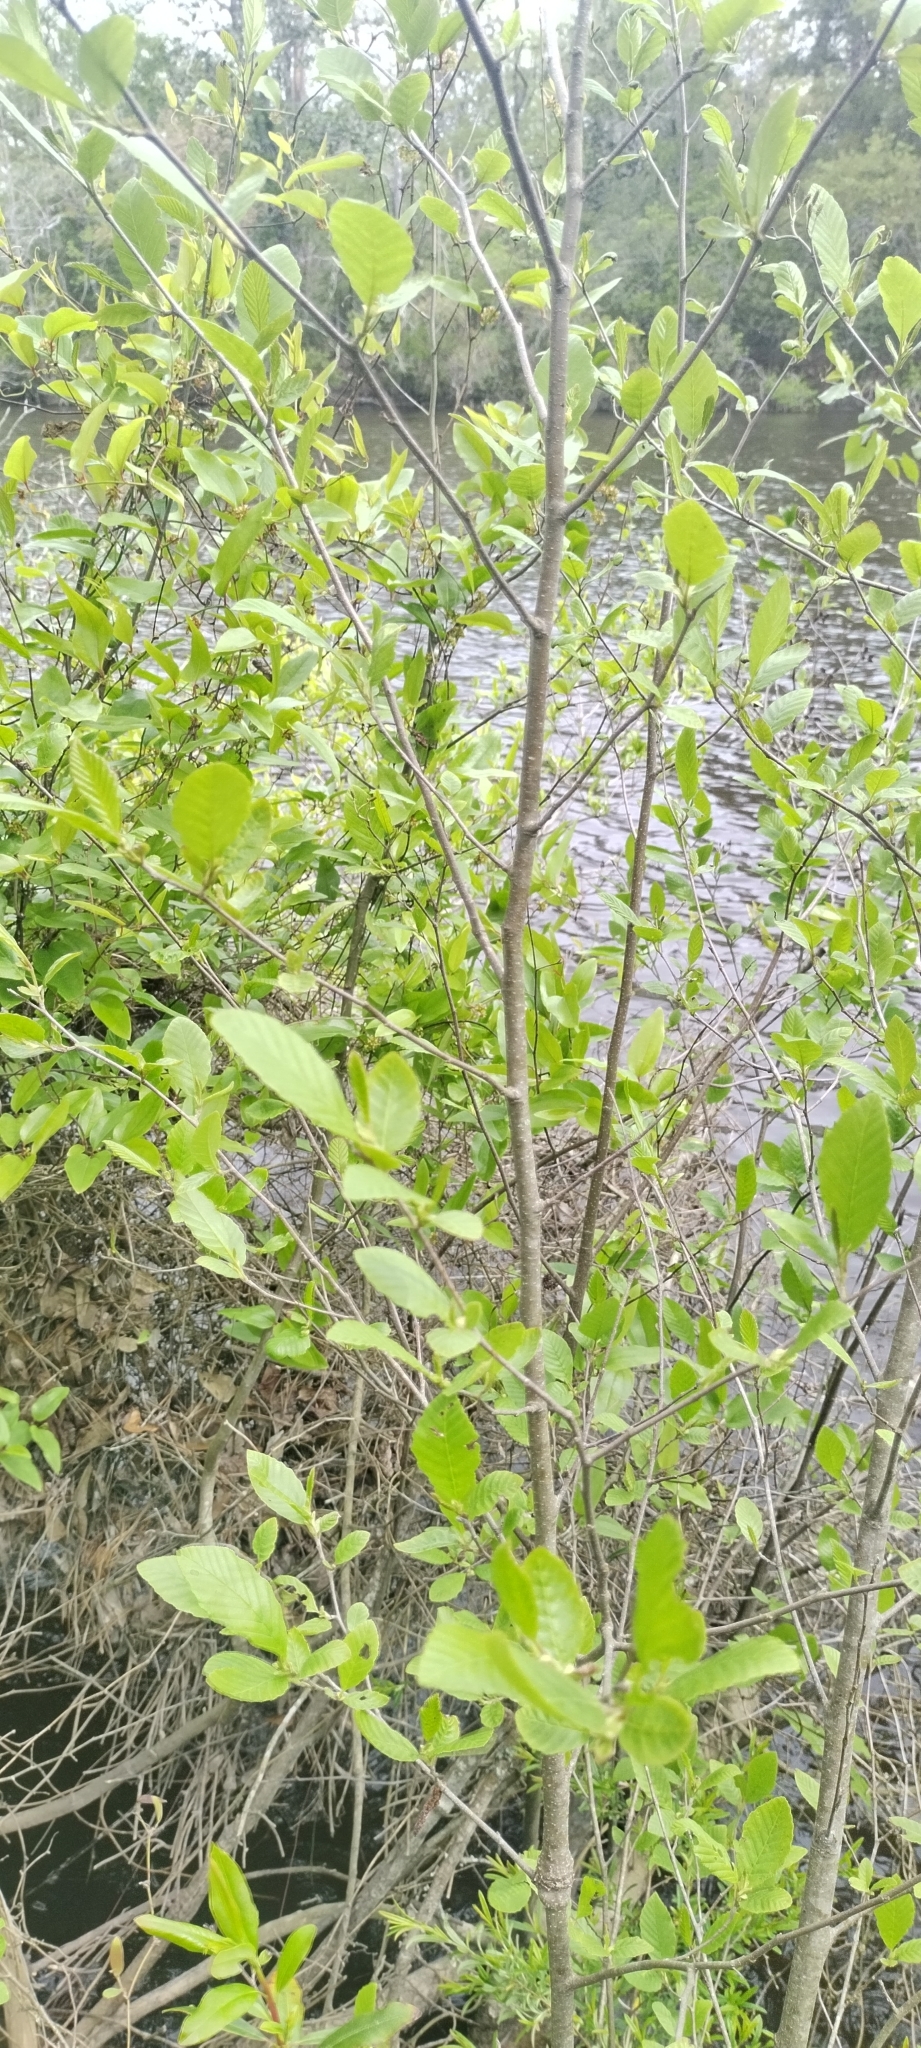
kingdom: Plantae
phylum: Tracheophyta
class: Magnoliopsida
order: Fagales
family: Betulaceae
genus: Alnus
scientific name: Alnus serrulata
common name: Hazel alder
